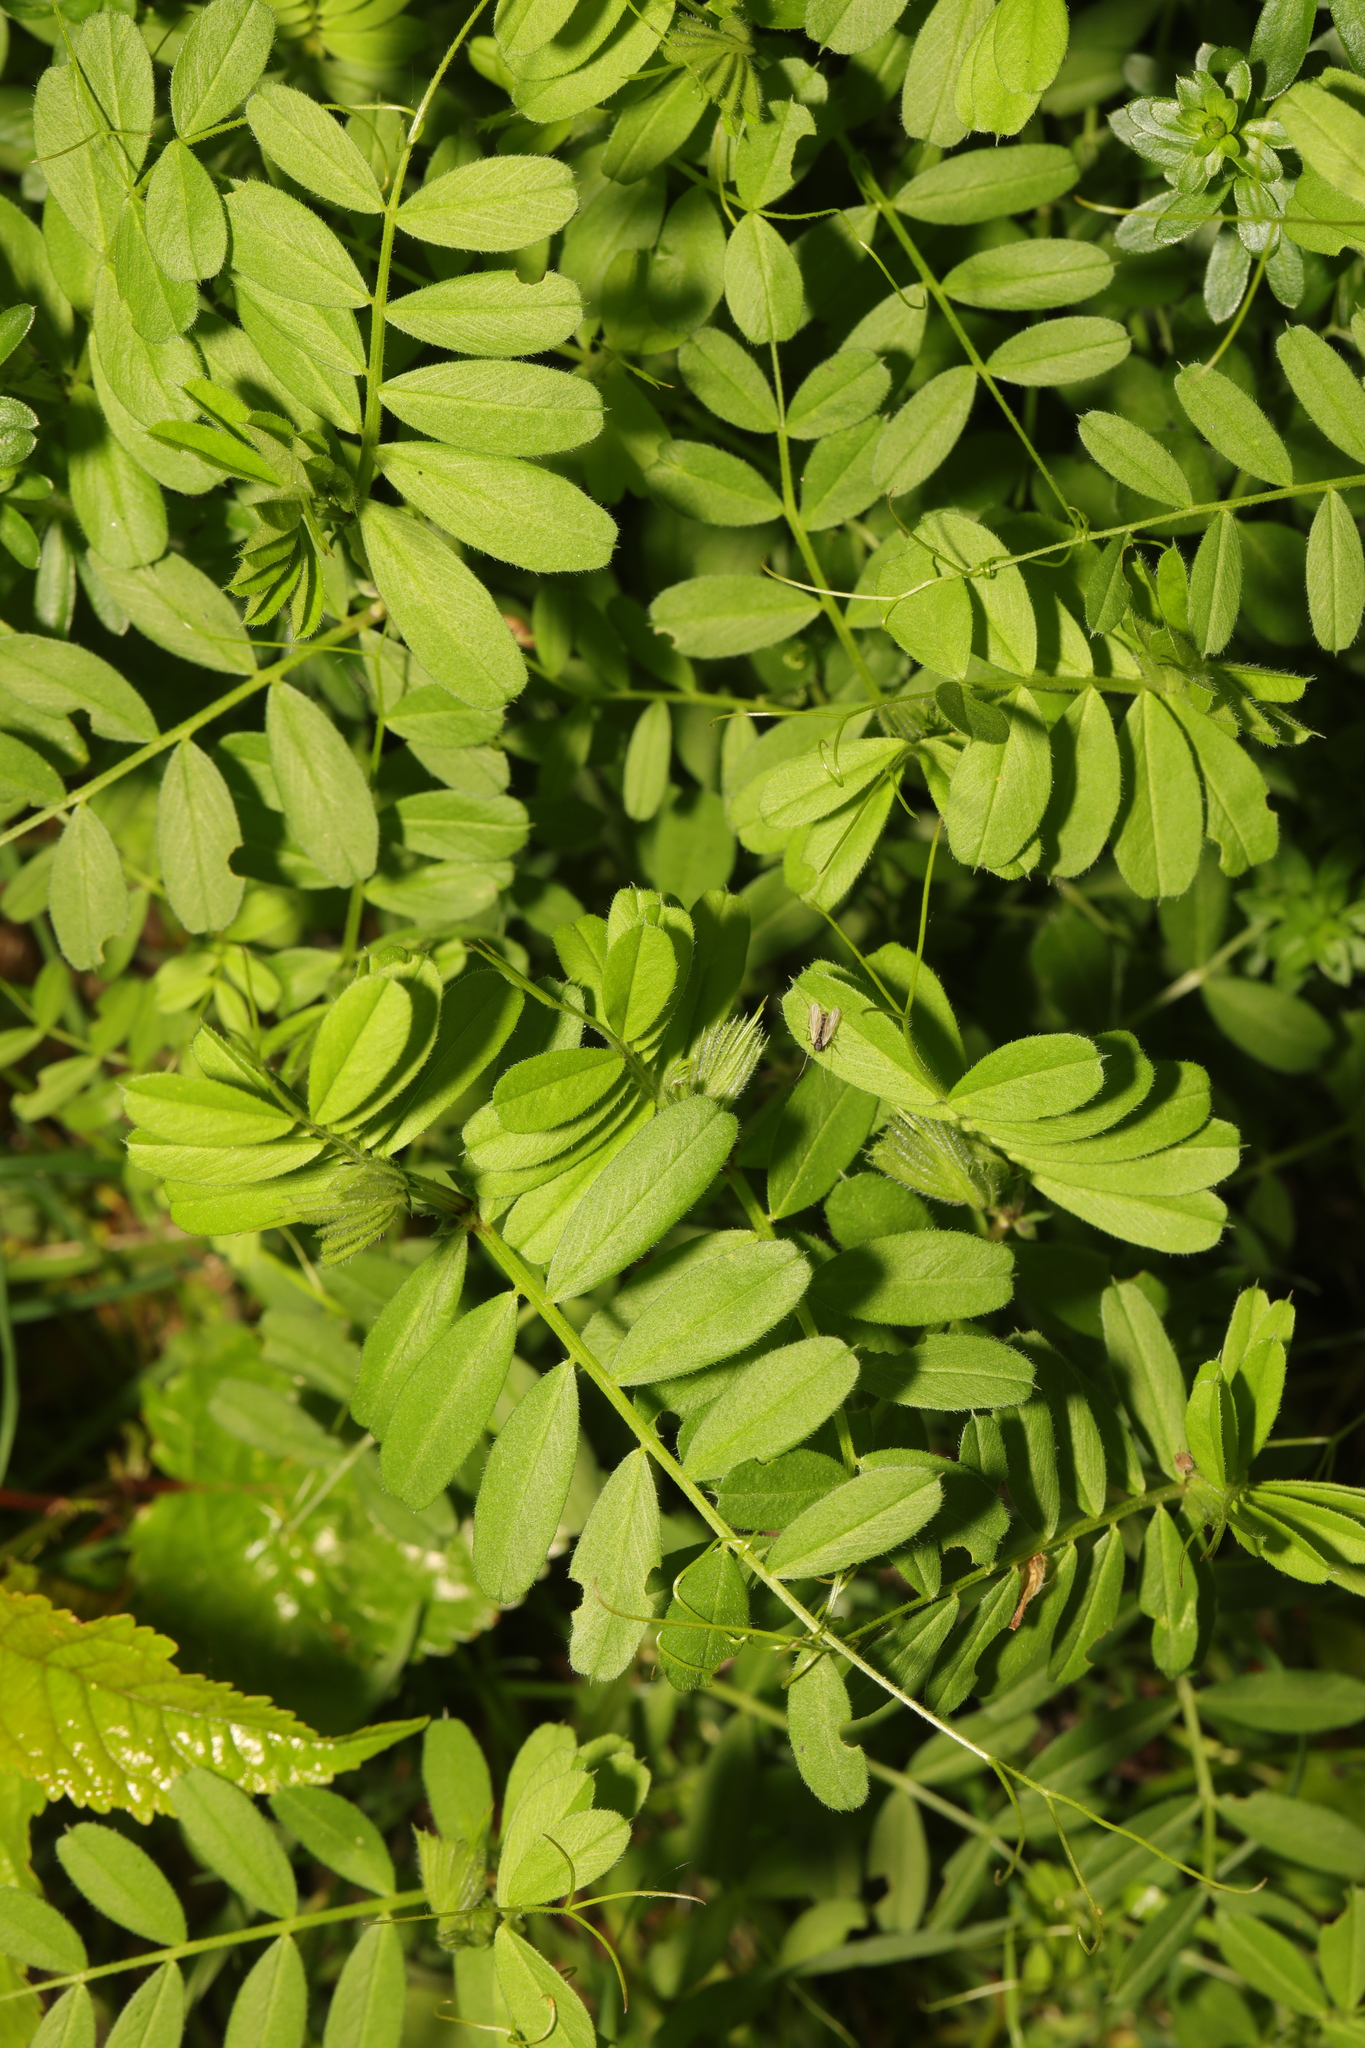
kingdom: Plantae
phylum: Tracheophyta
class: Magnoliopsida
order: Fabales
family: Fabaceae
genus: Coronilla
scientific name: Coronilla varia
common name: Crownvetch
